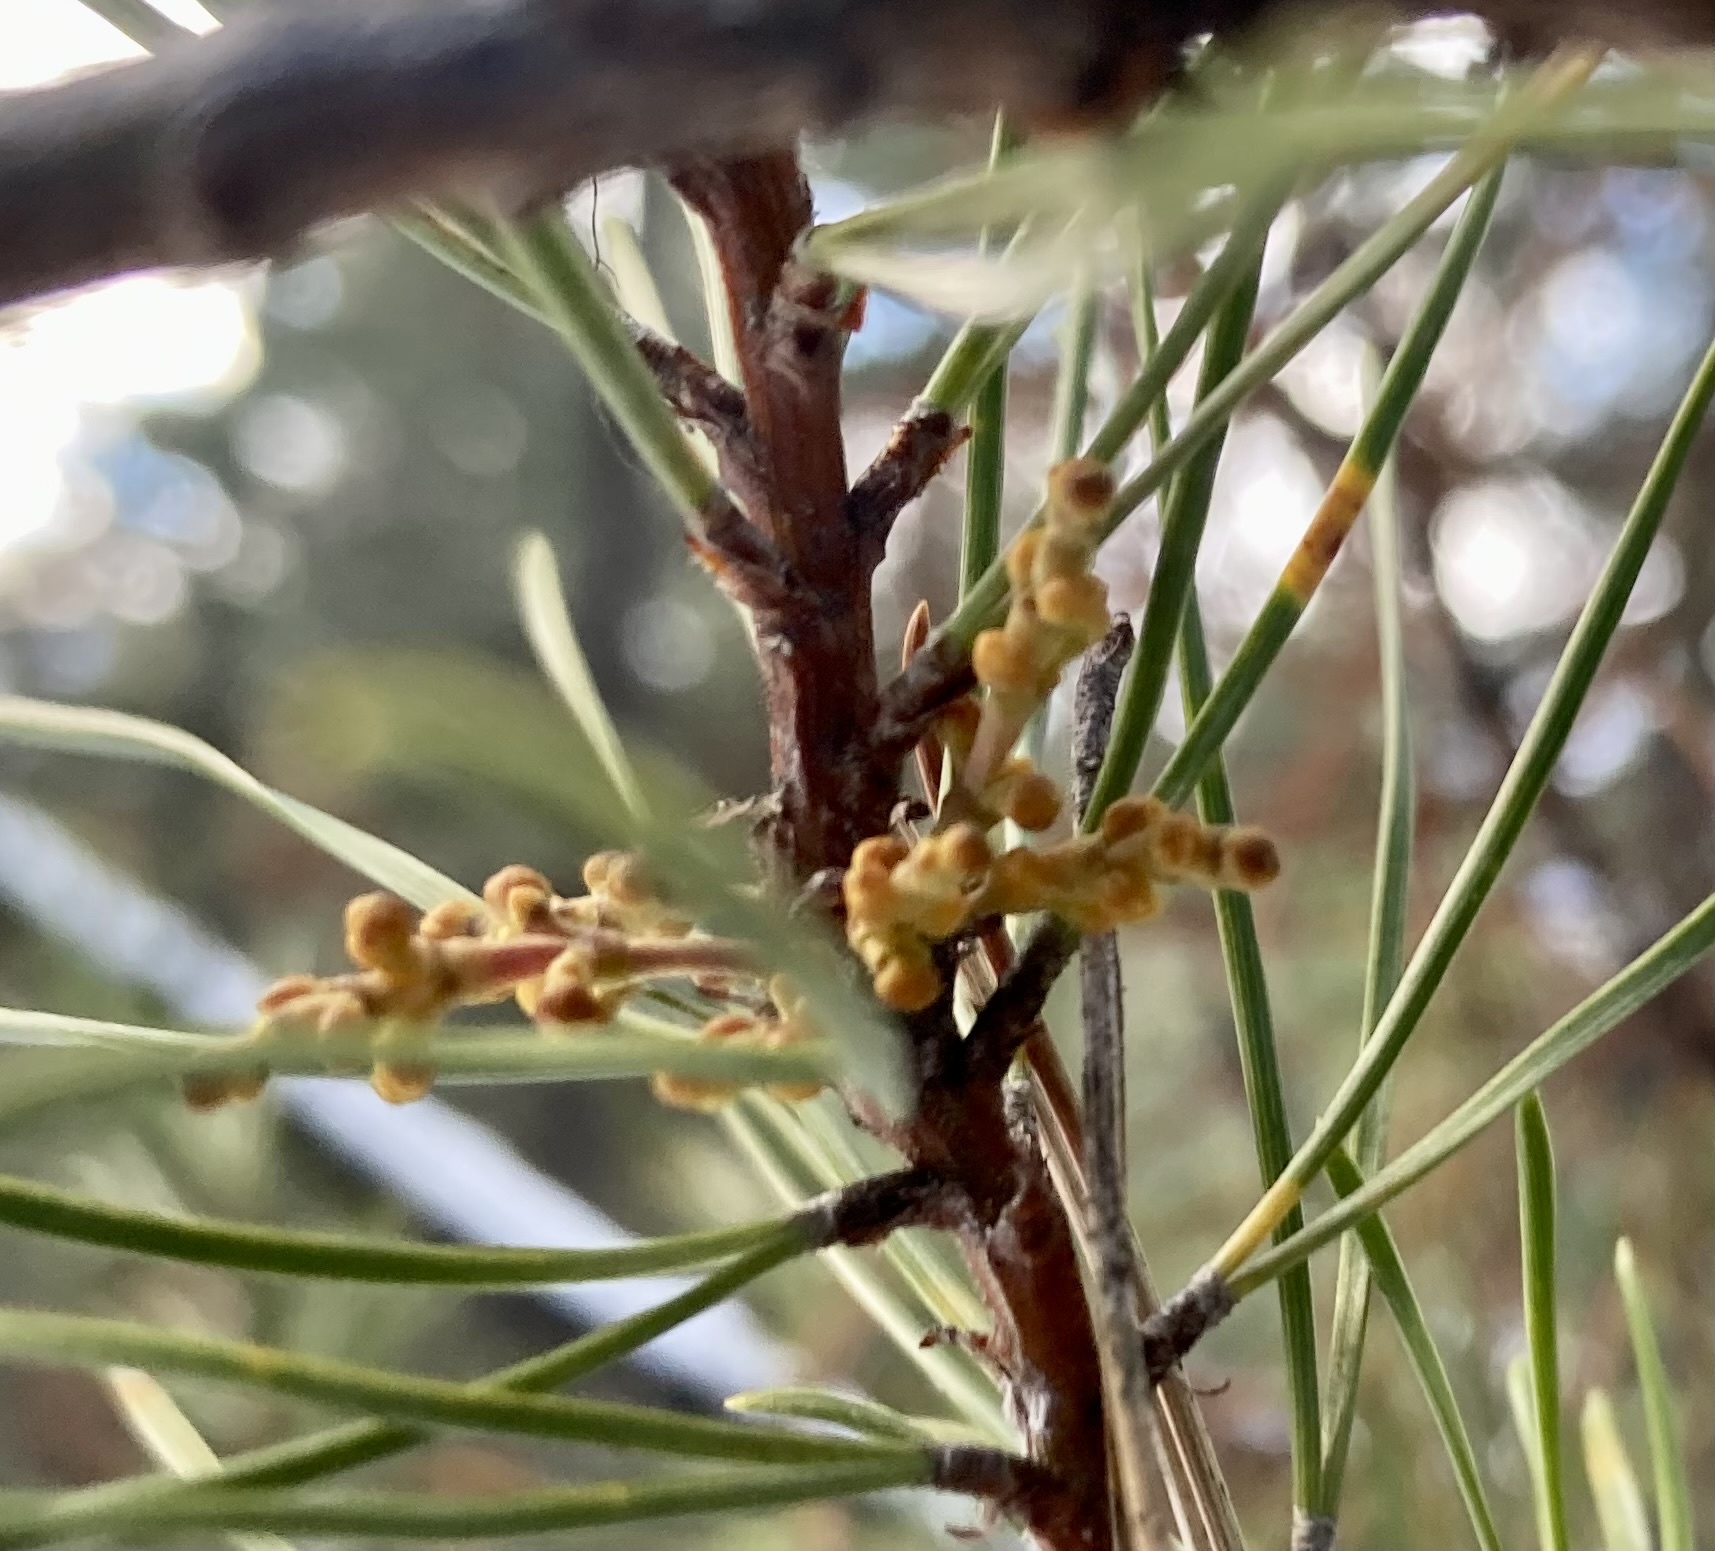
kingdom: Plantae
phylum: Tracheophyta
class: Magnoliopsida
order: Santalales
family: Viscaceae
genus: Arceuthobium
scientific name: Arceuthobium americanum
